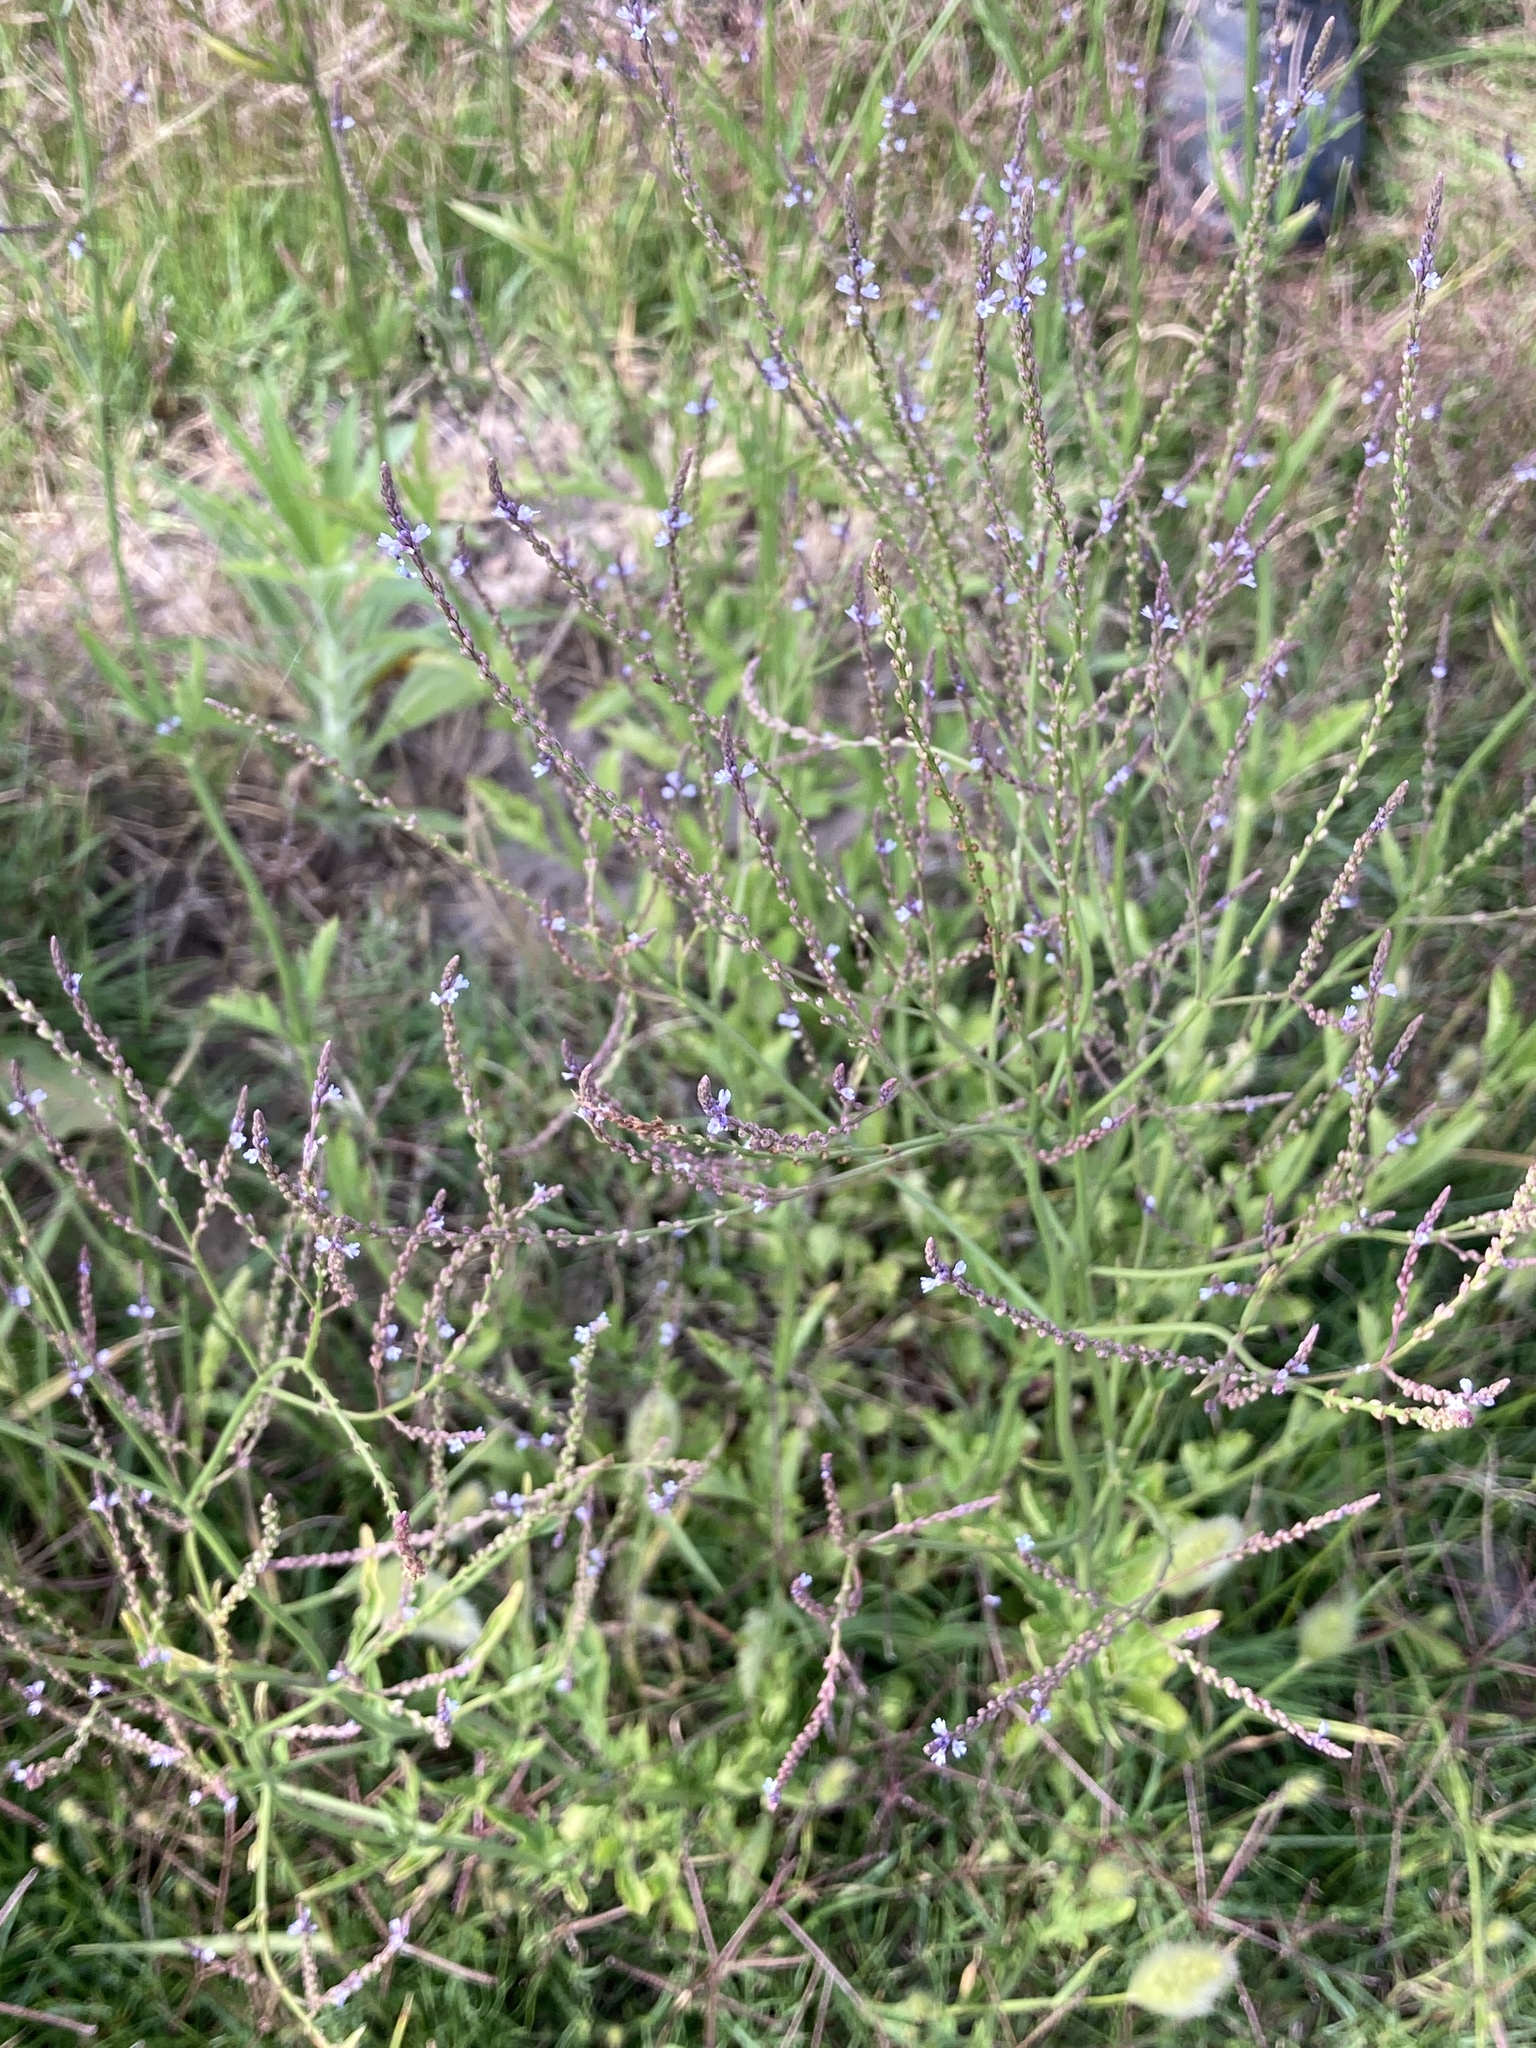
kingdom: Plantae
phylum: Tracheophyta
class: Magnoliopsida
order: Lamiales
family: Verbenaceae
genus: Verbena
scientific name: Verbena gracilescens
